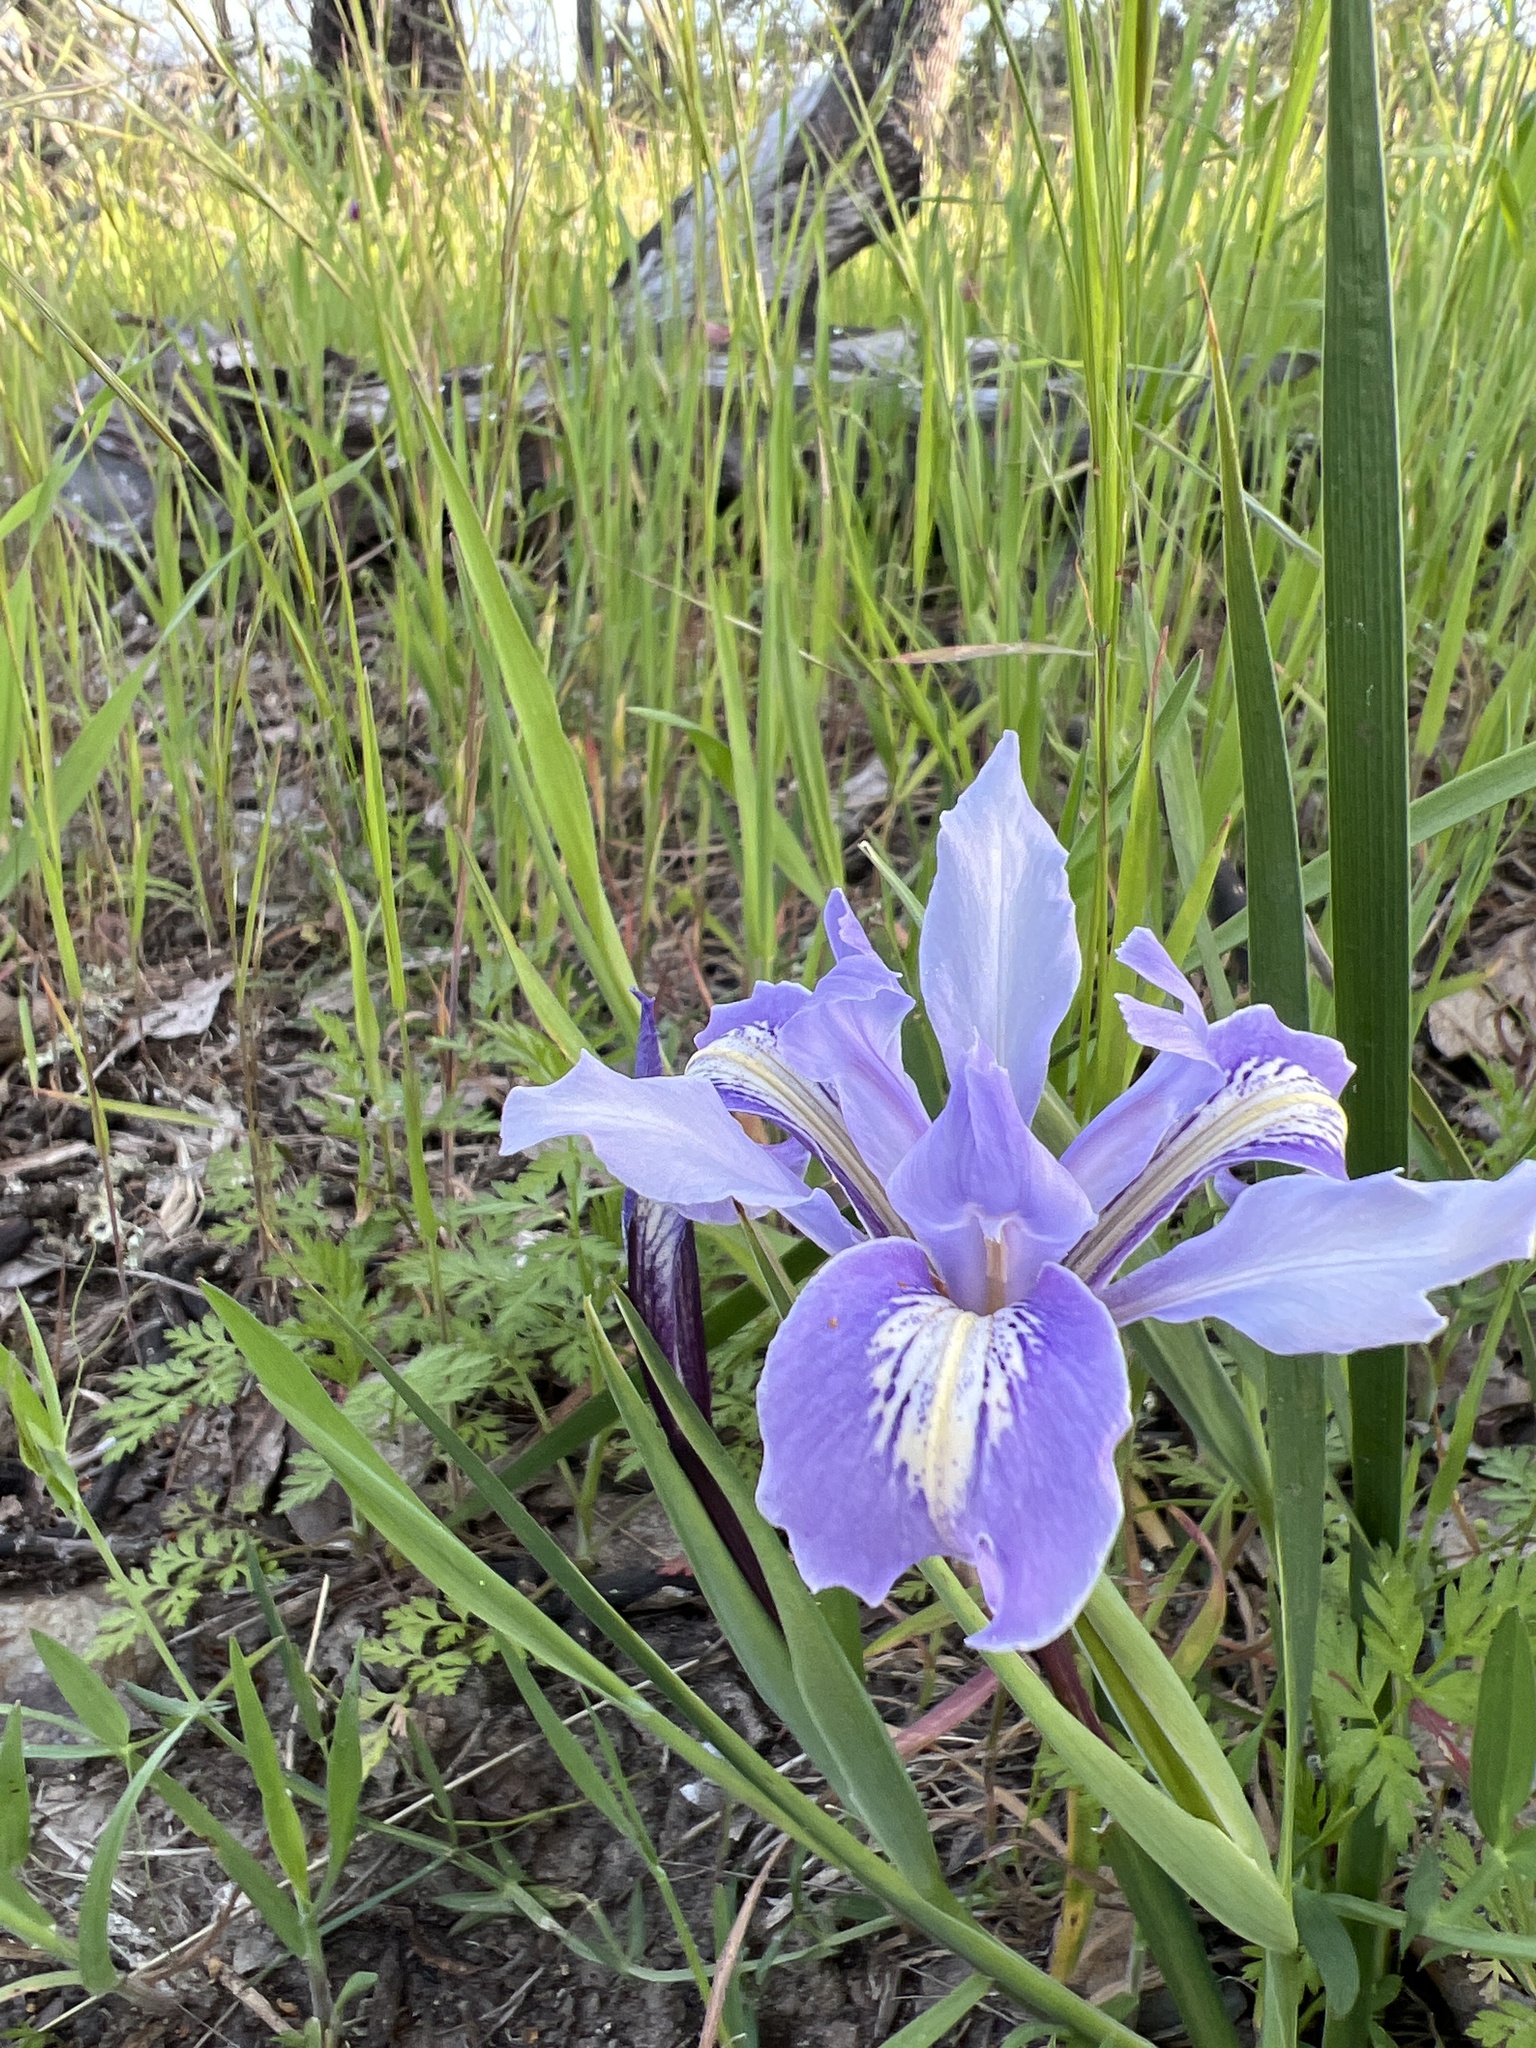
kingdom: Plantae
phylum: Tracheophyta
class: Liliopsida
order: Asparagales
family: Iridaceae
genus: Iris
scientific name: Iris macrosiphon
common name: Ground iris
